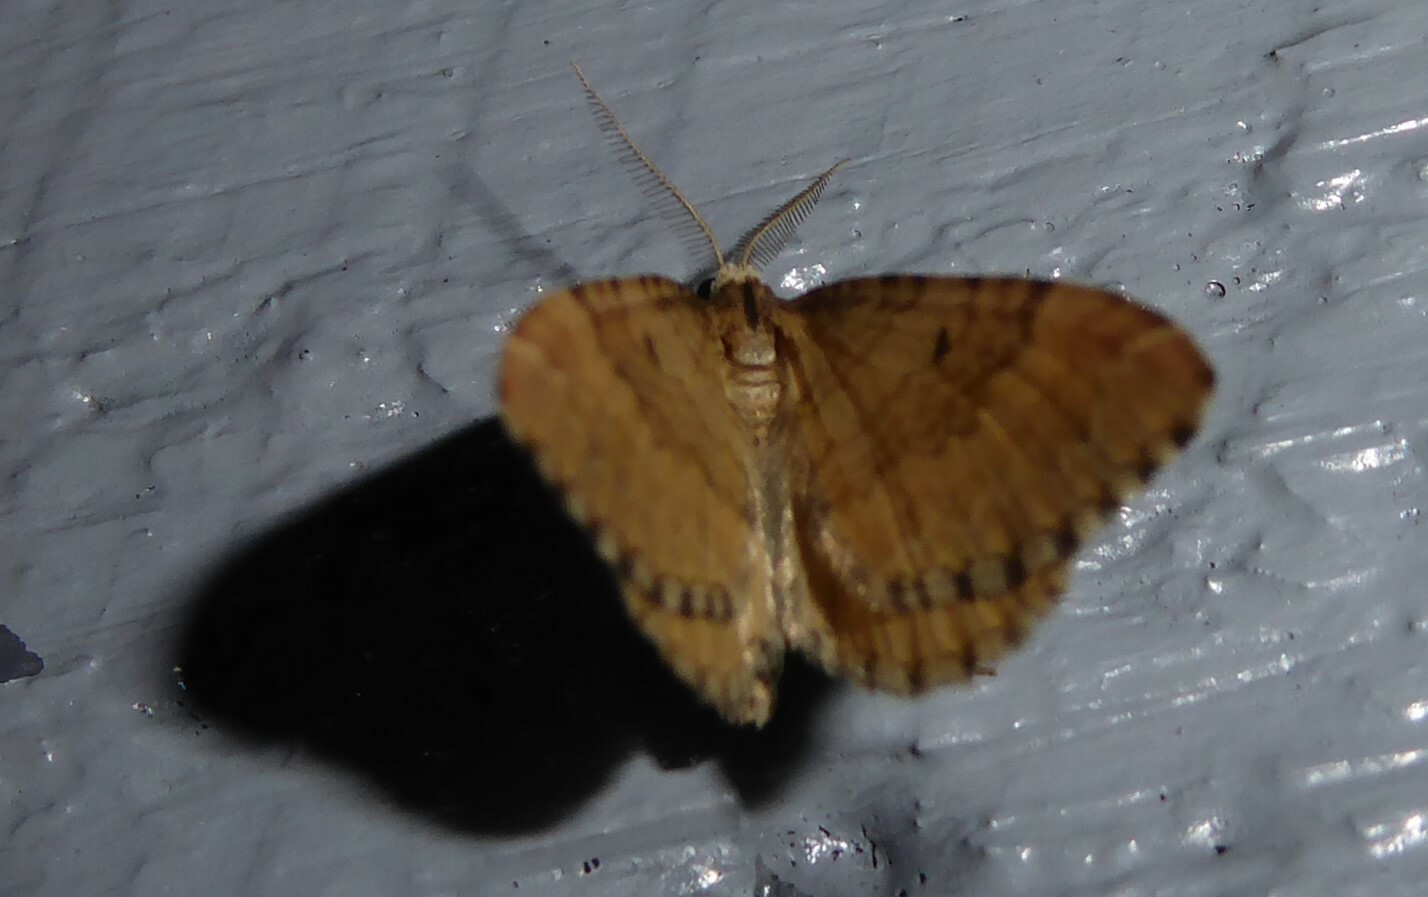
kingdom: Animalia
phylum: Arthropoda
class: Insecta
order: Lepidoptera
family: Geometridae
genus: Asaphodes
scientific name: Asaphodes aegrota
